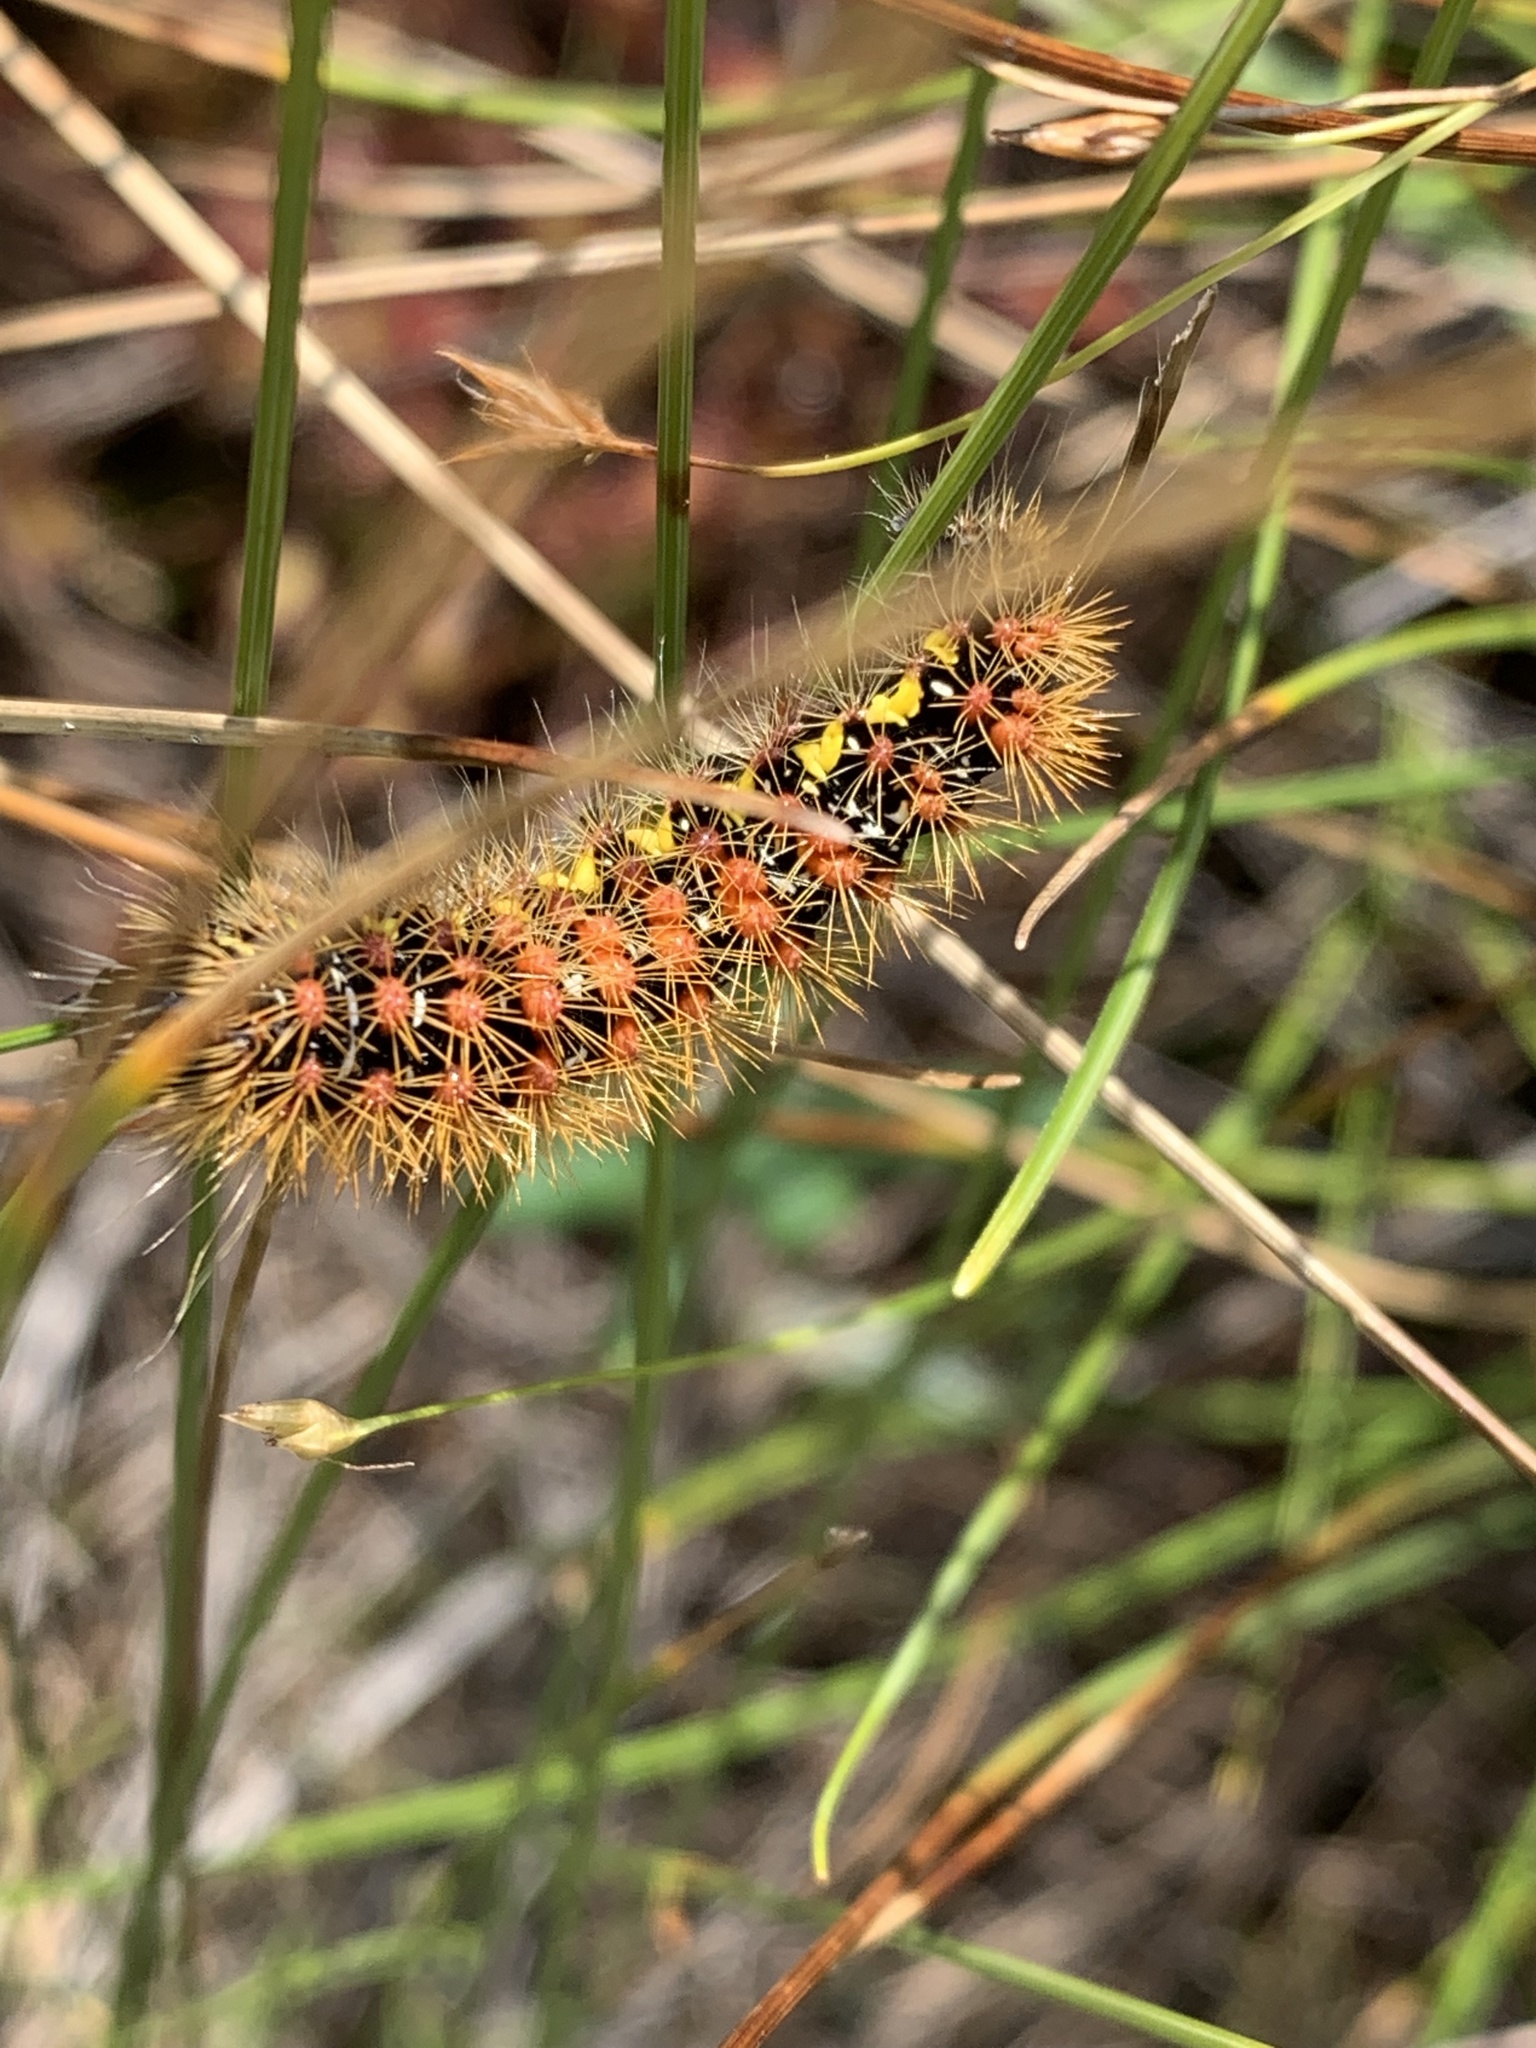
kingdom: Animalia
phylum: Arthropoda
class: Insecta
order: Lepidoptera
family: Noctuidae
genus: Acronicta
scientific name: Acronicta oblinita
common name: Smeared dagger
